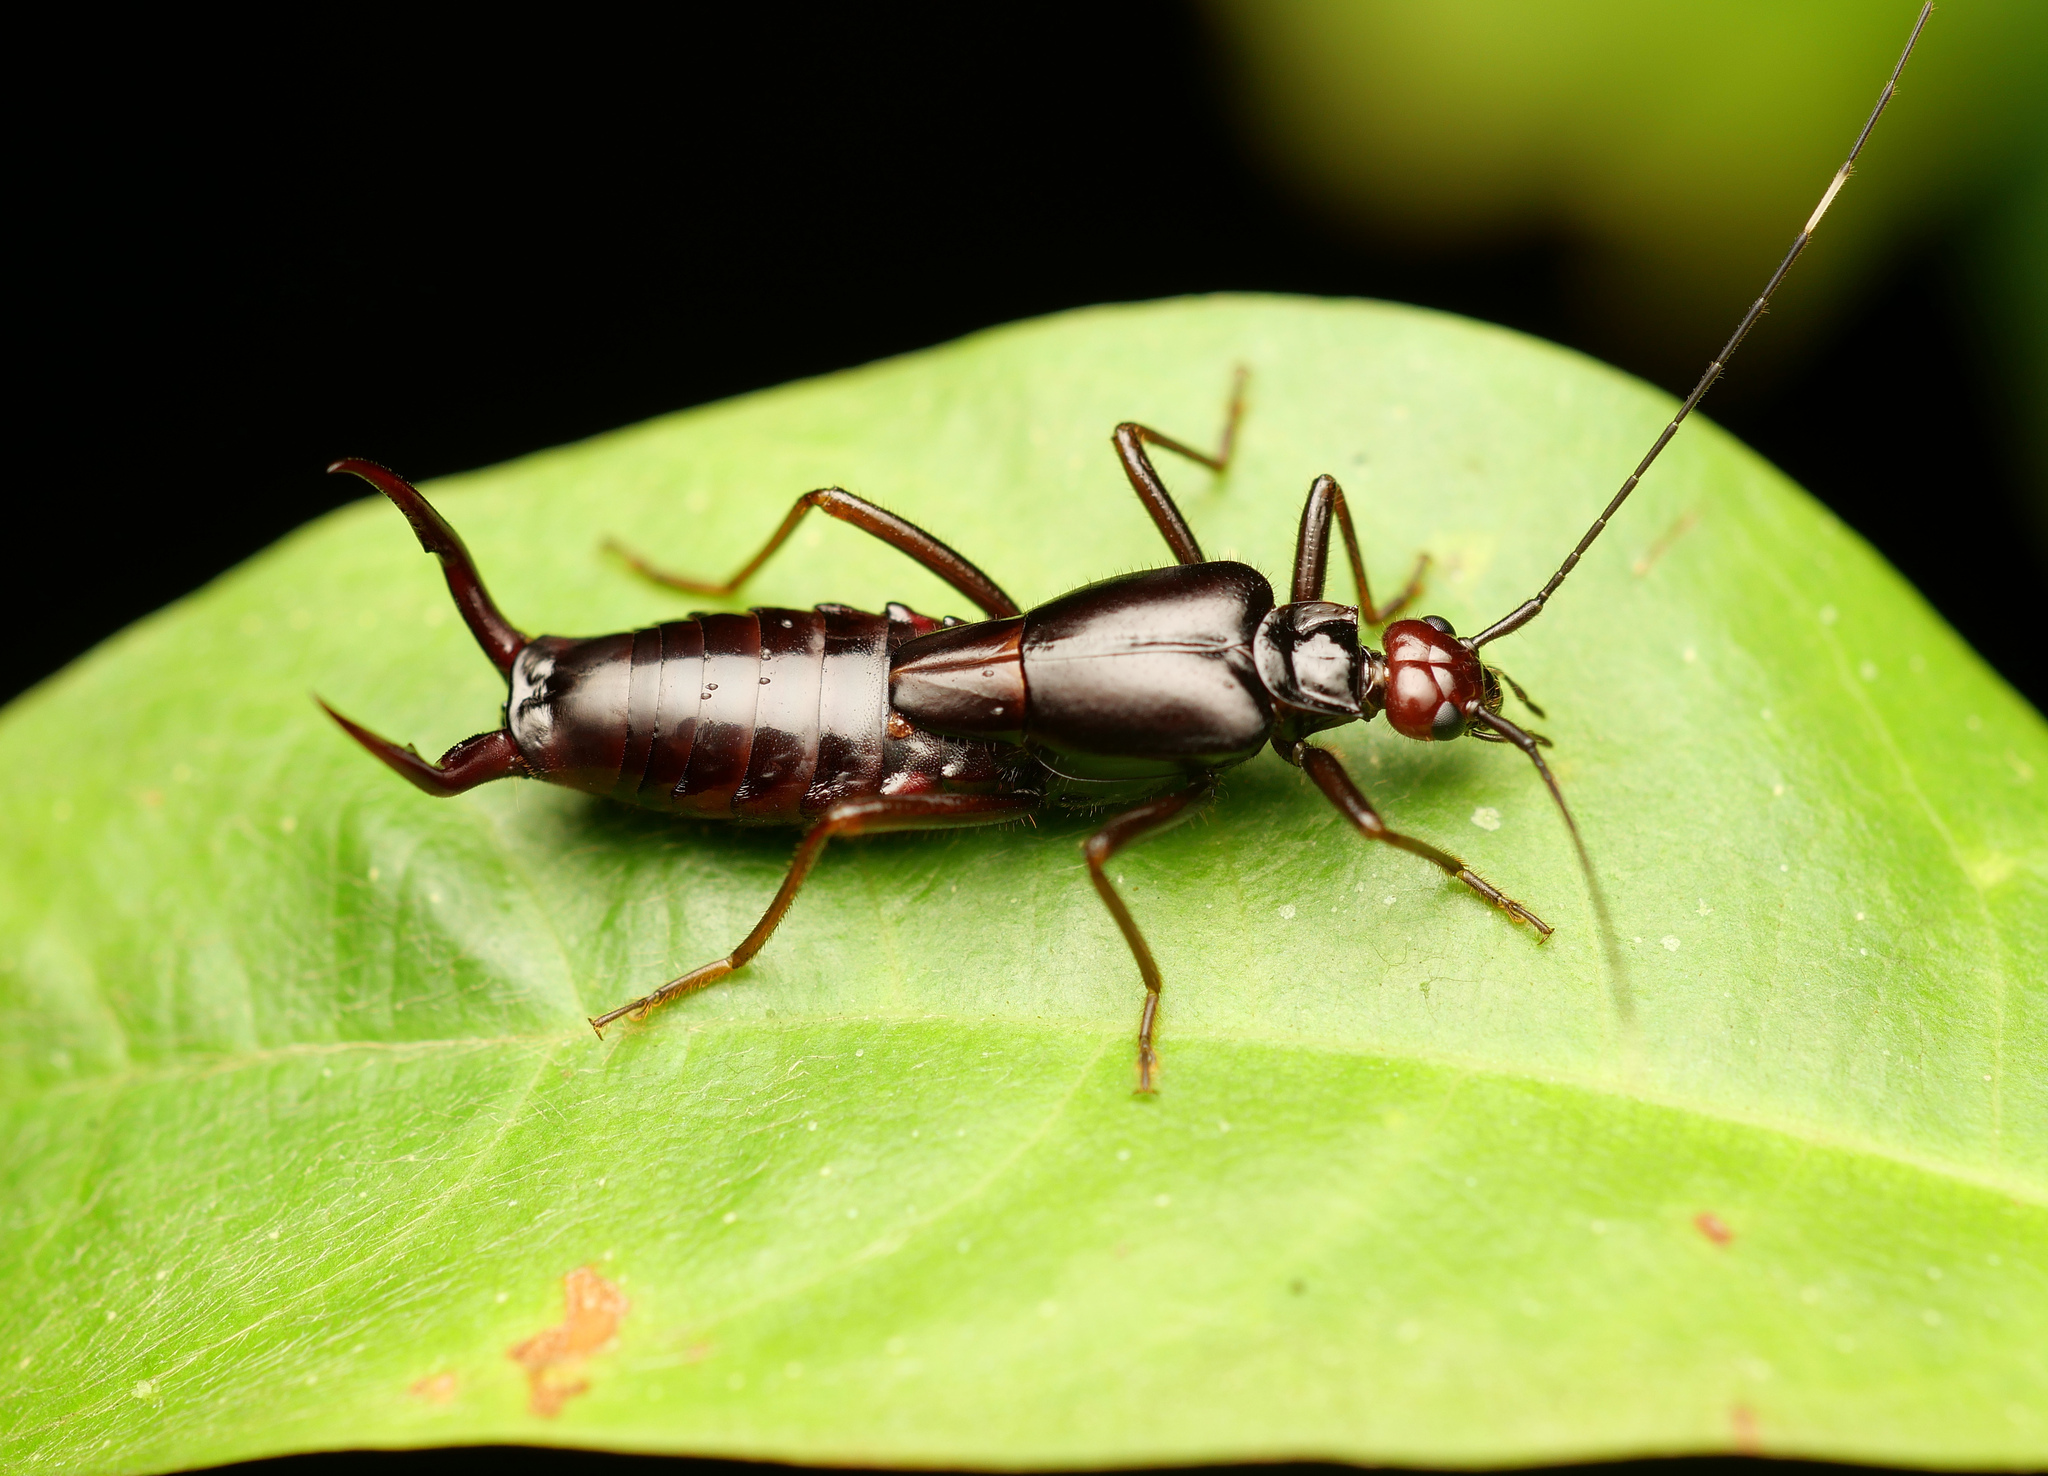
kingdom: Animalia
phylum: Arthropoda
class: Insecta
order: Dermaptera
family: Forficulidae
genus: Hypurgus
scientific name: Hypurgus fulvus
